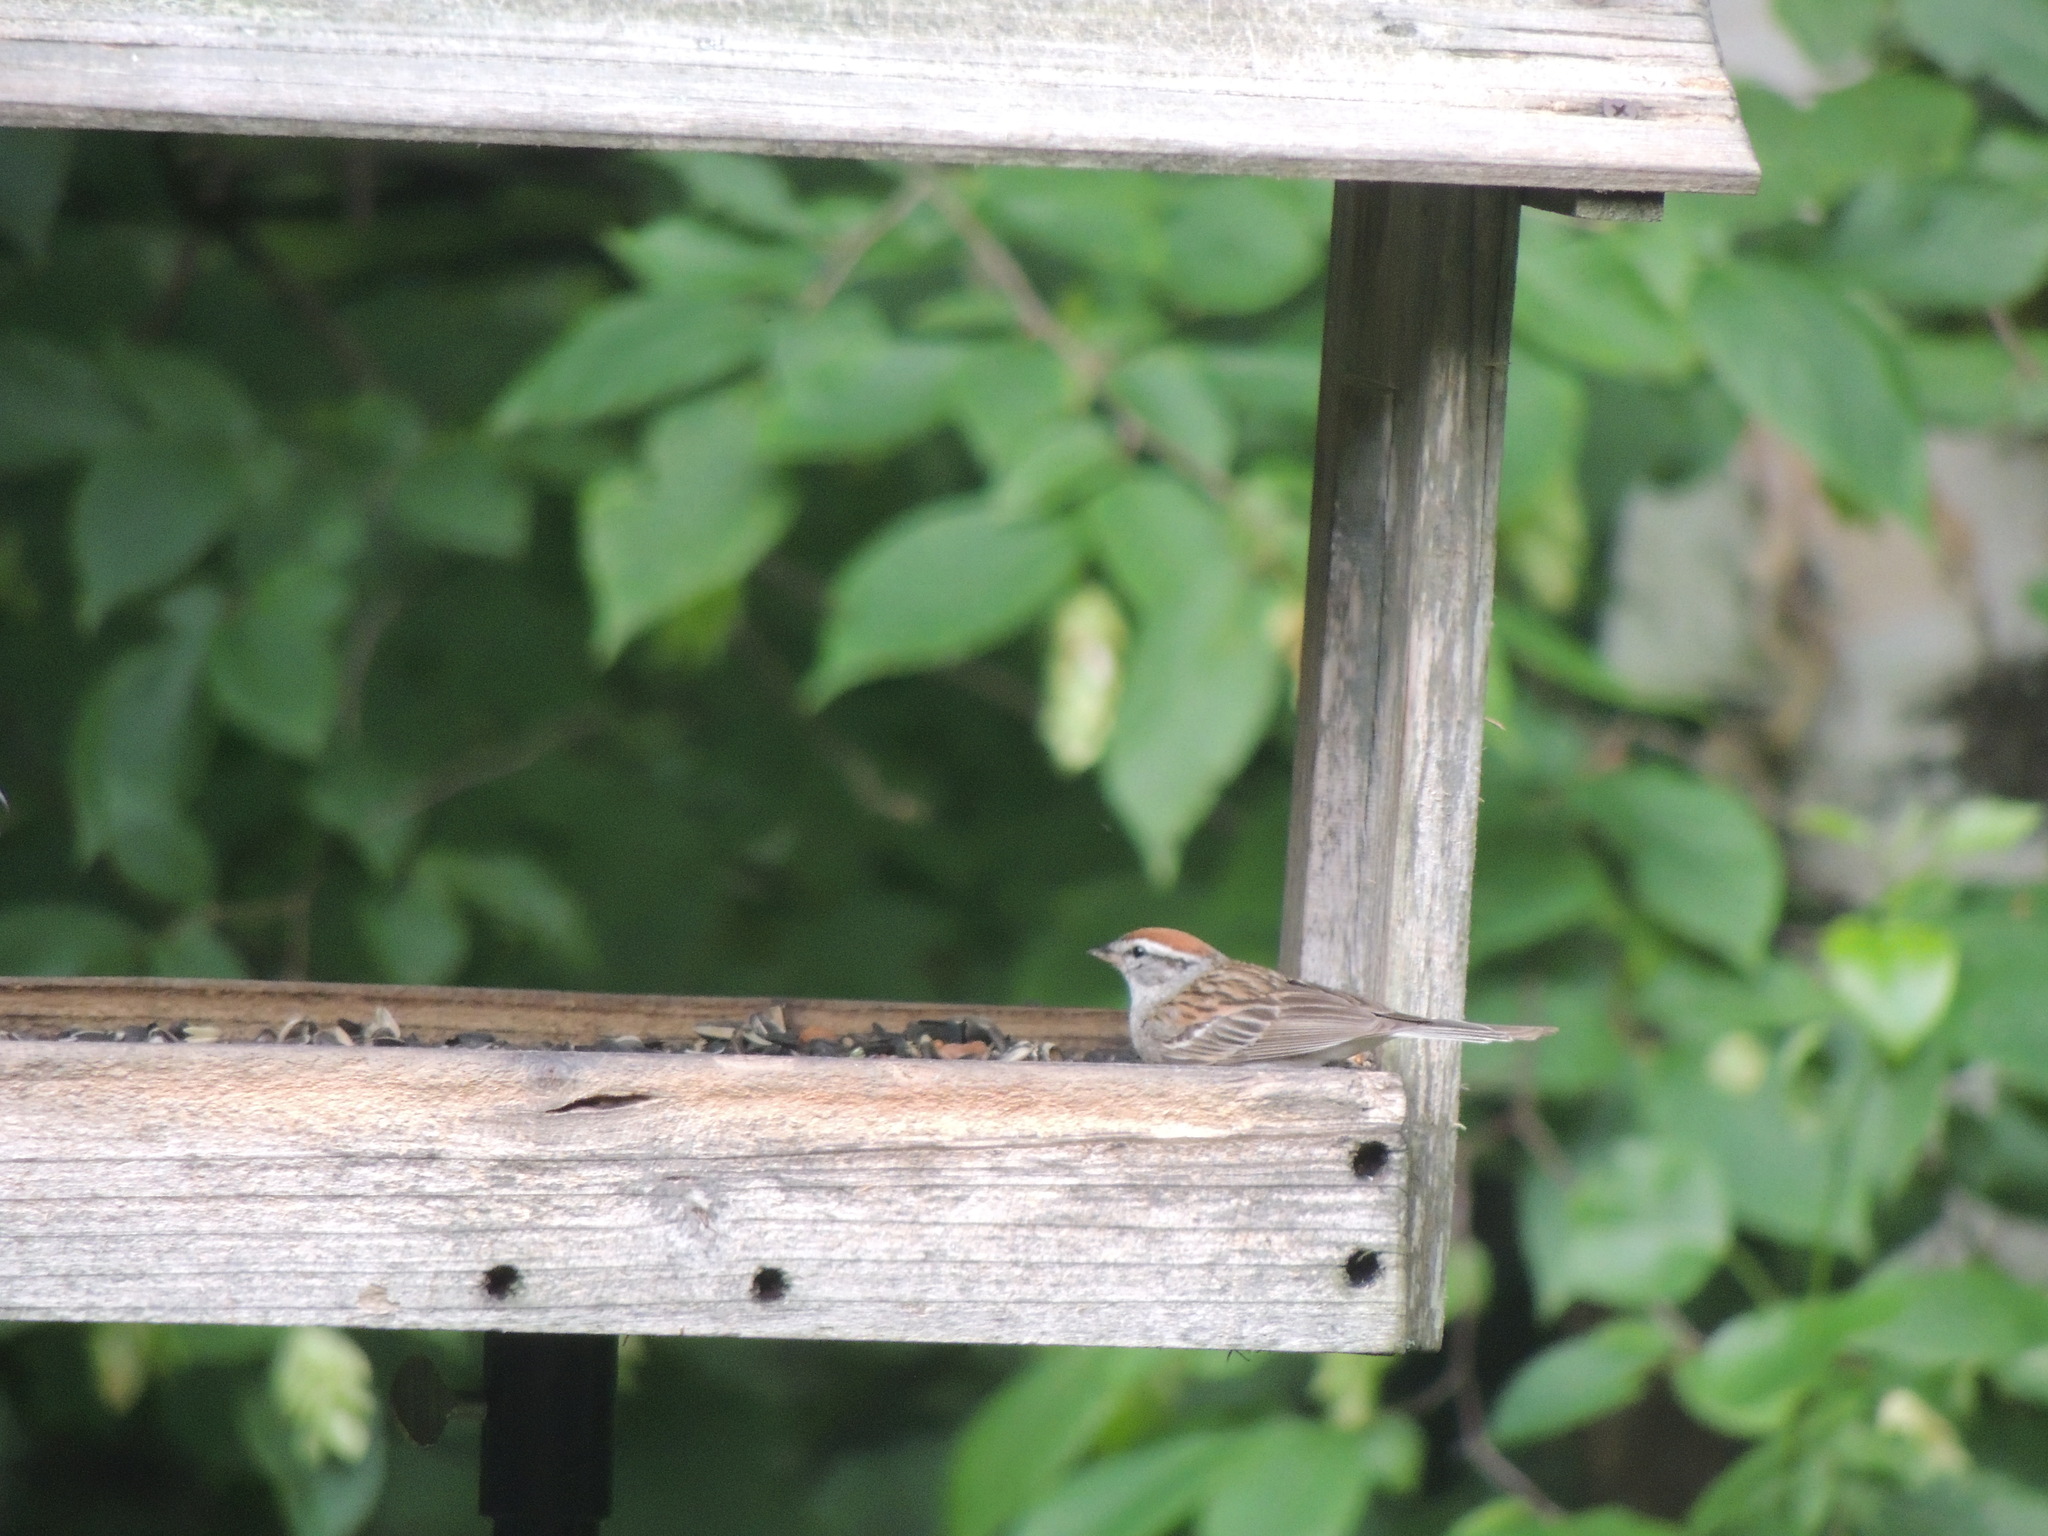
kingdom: Animalia
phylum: Chordata
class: Aves
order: Passeriformes
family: Passerellidae
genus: Spizella
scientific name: Spizella passerina
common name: Chipping sparrow
